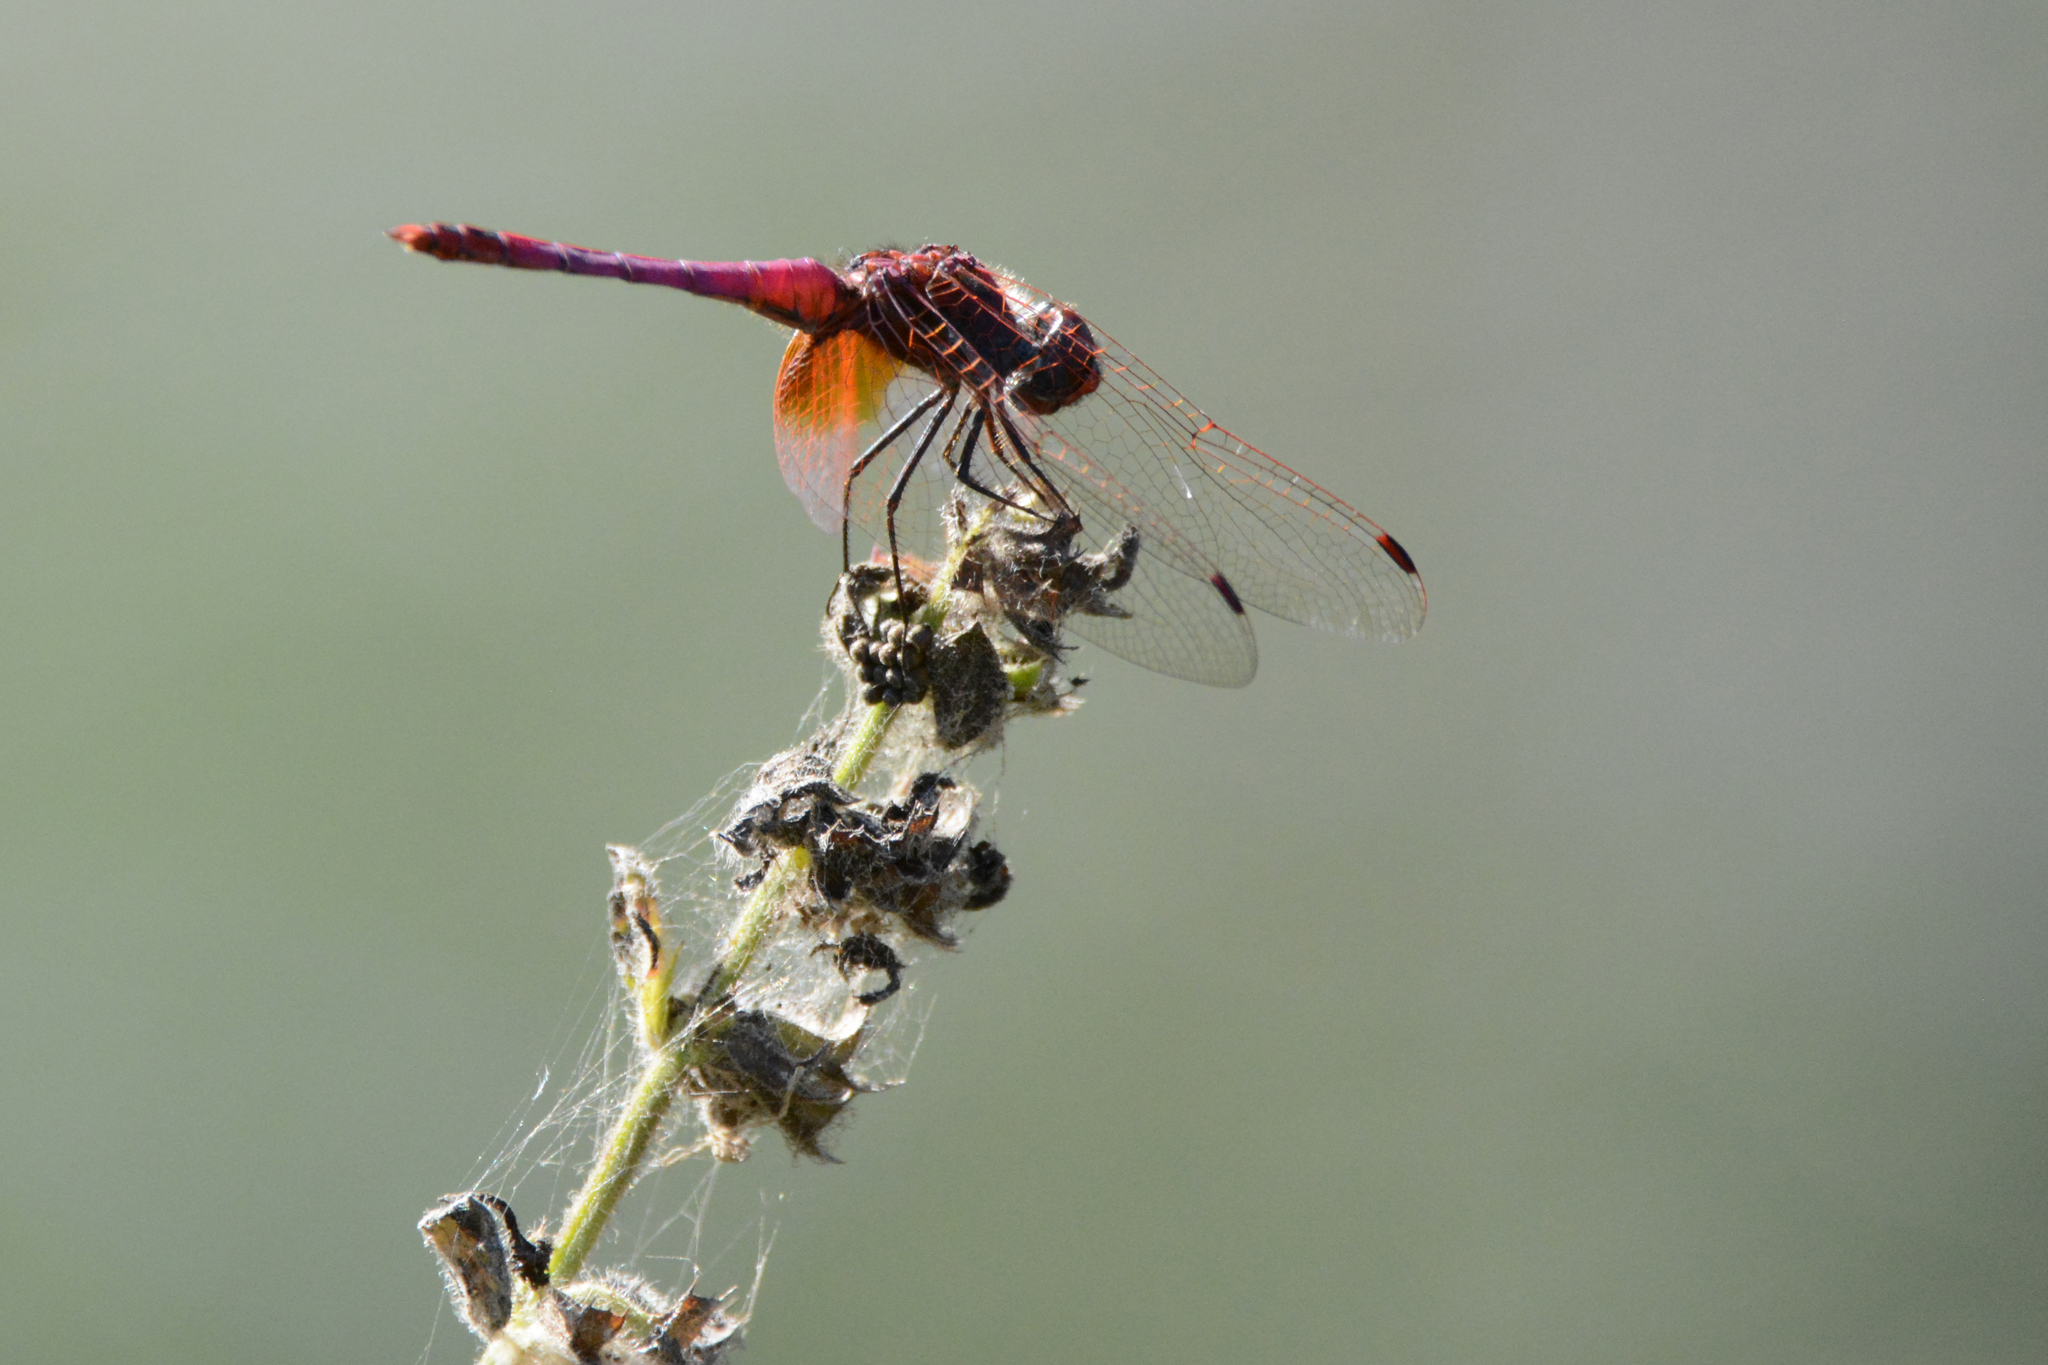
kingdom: Animalia
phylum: Arthropoda
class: Insecta
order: Odonata
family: Libellulidae
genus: Trithemis
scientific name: Trithemis annulata
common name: Violet dropwing
